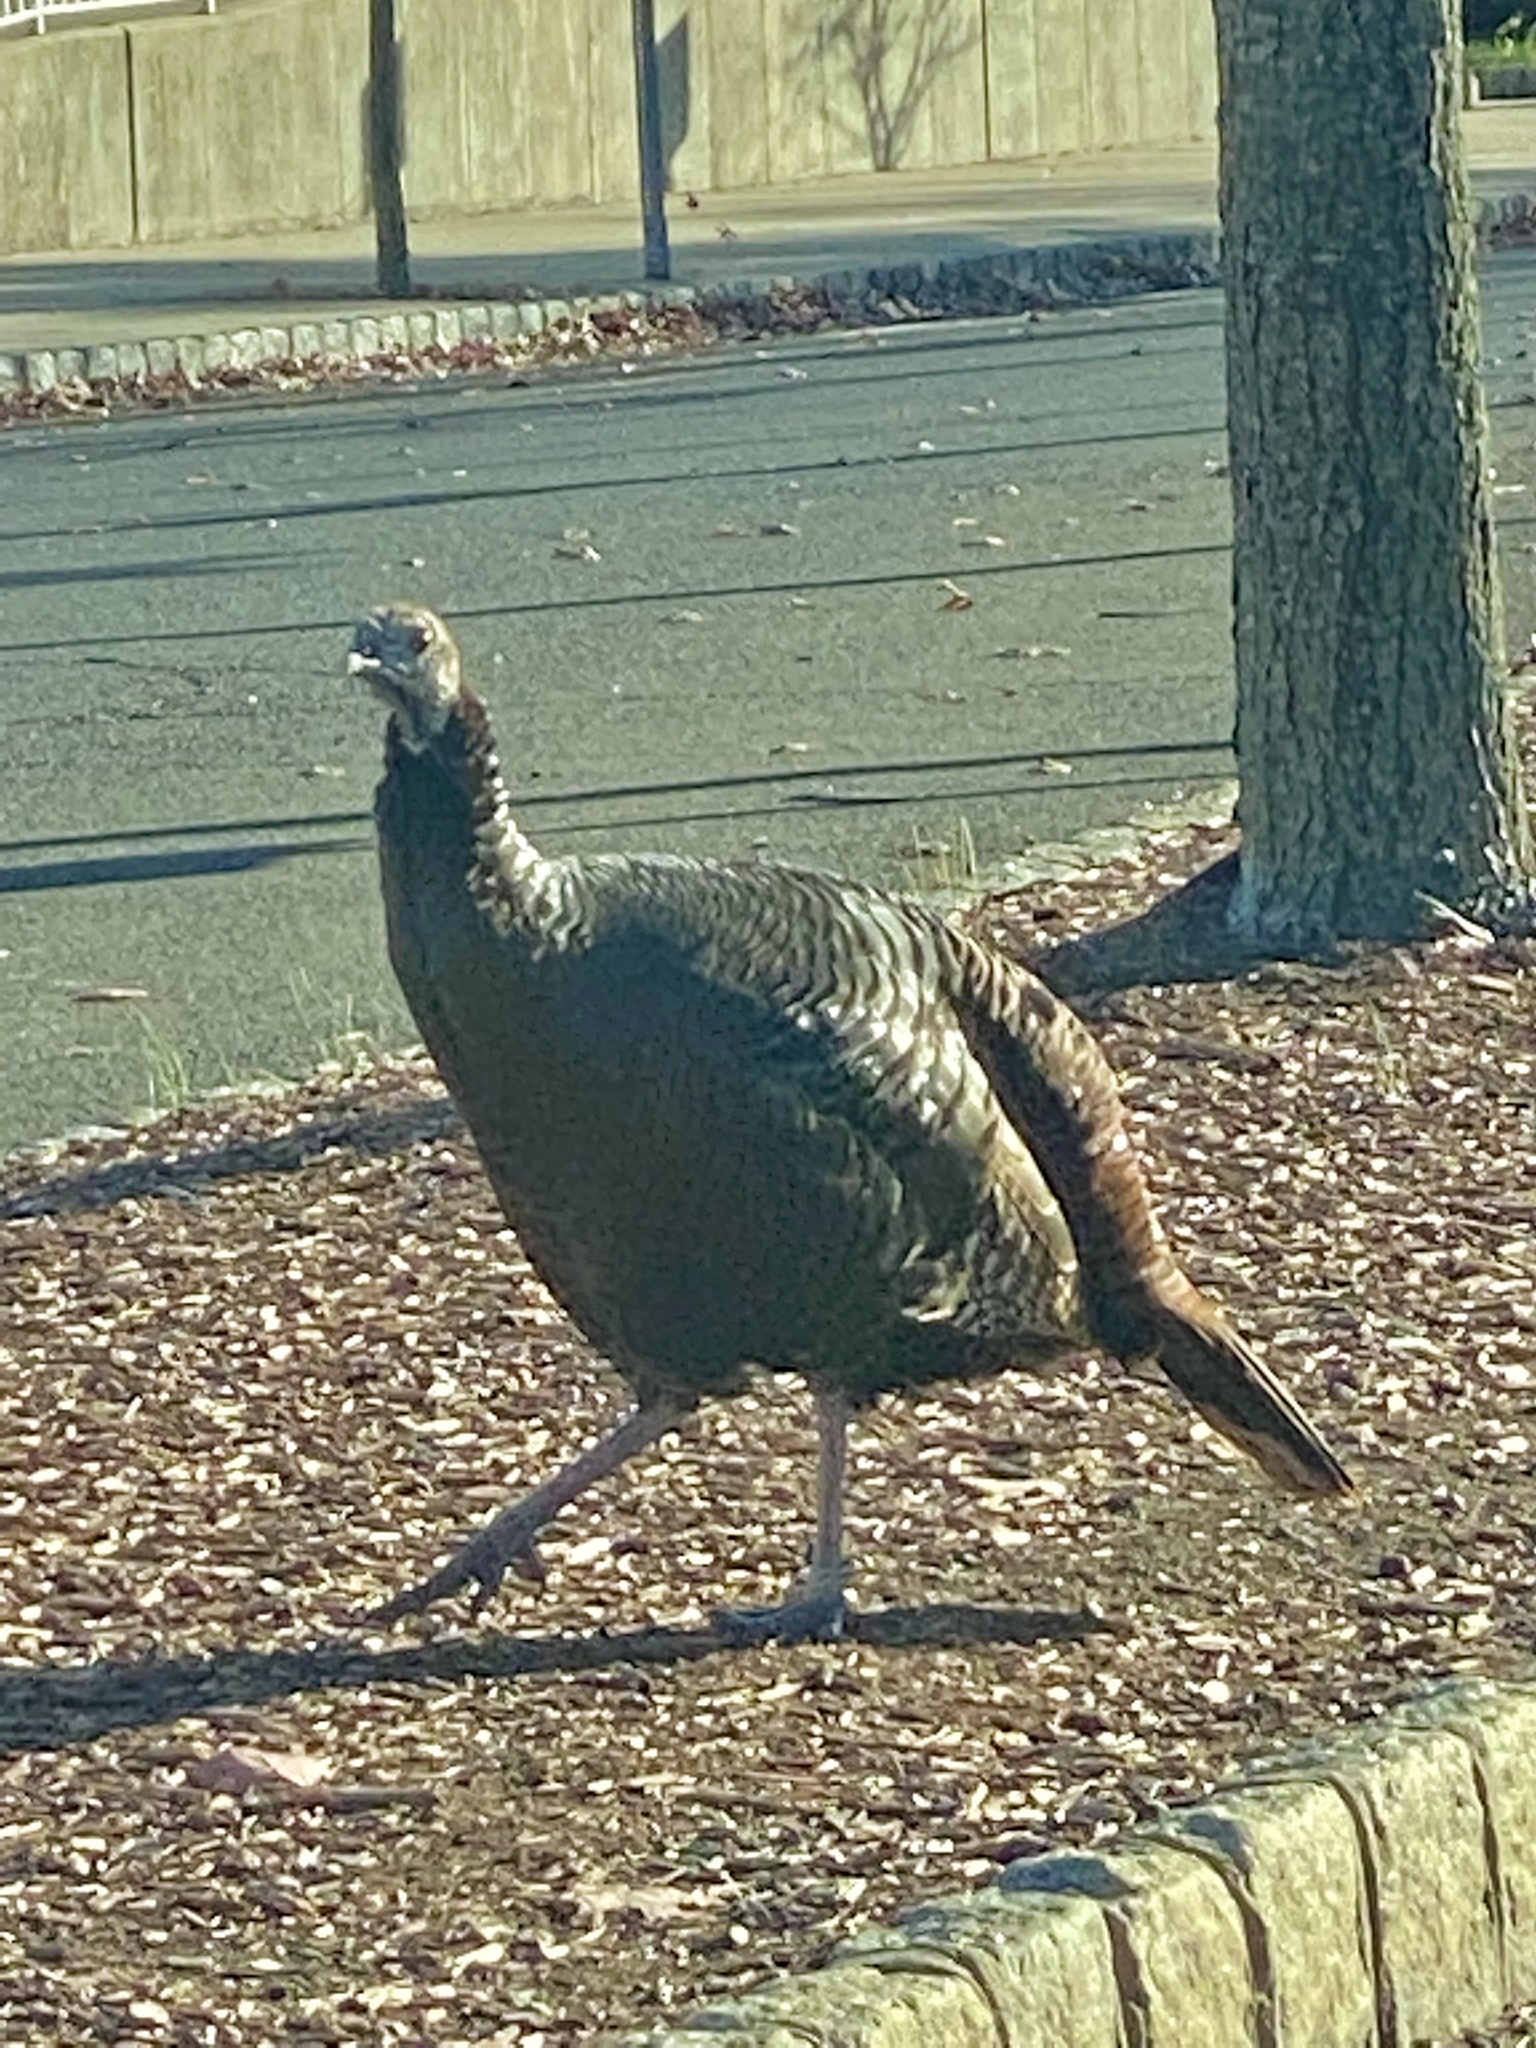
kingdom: Animalia
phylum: Chordata
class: Aves
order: Galliformes
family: Phasianidae
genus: Meleagris
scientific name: Meleagris gallopavo
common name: Wild turkey
